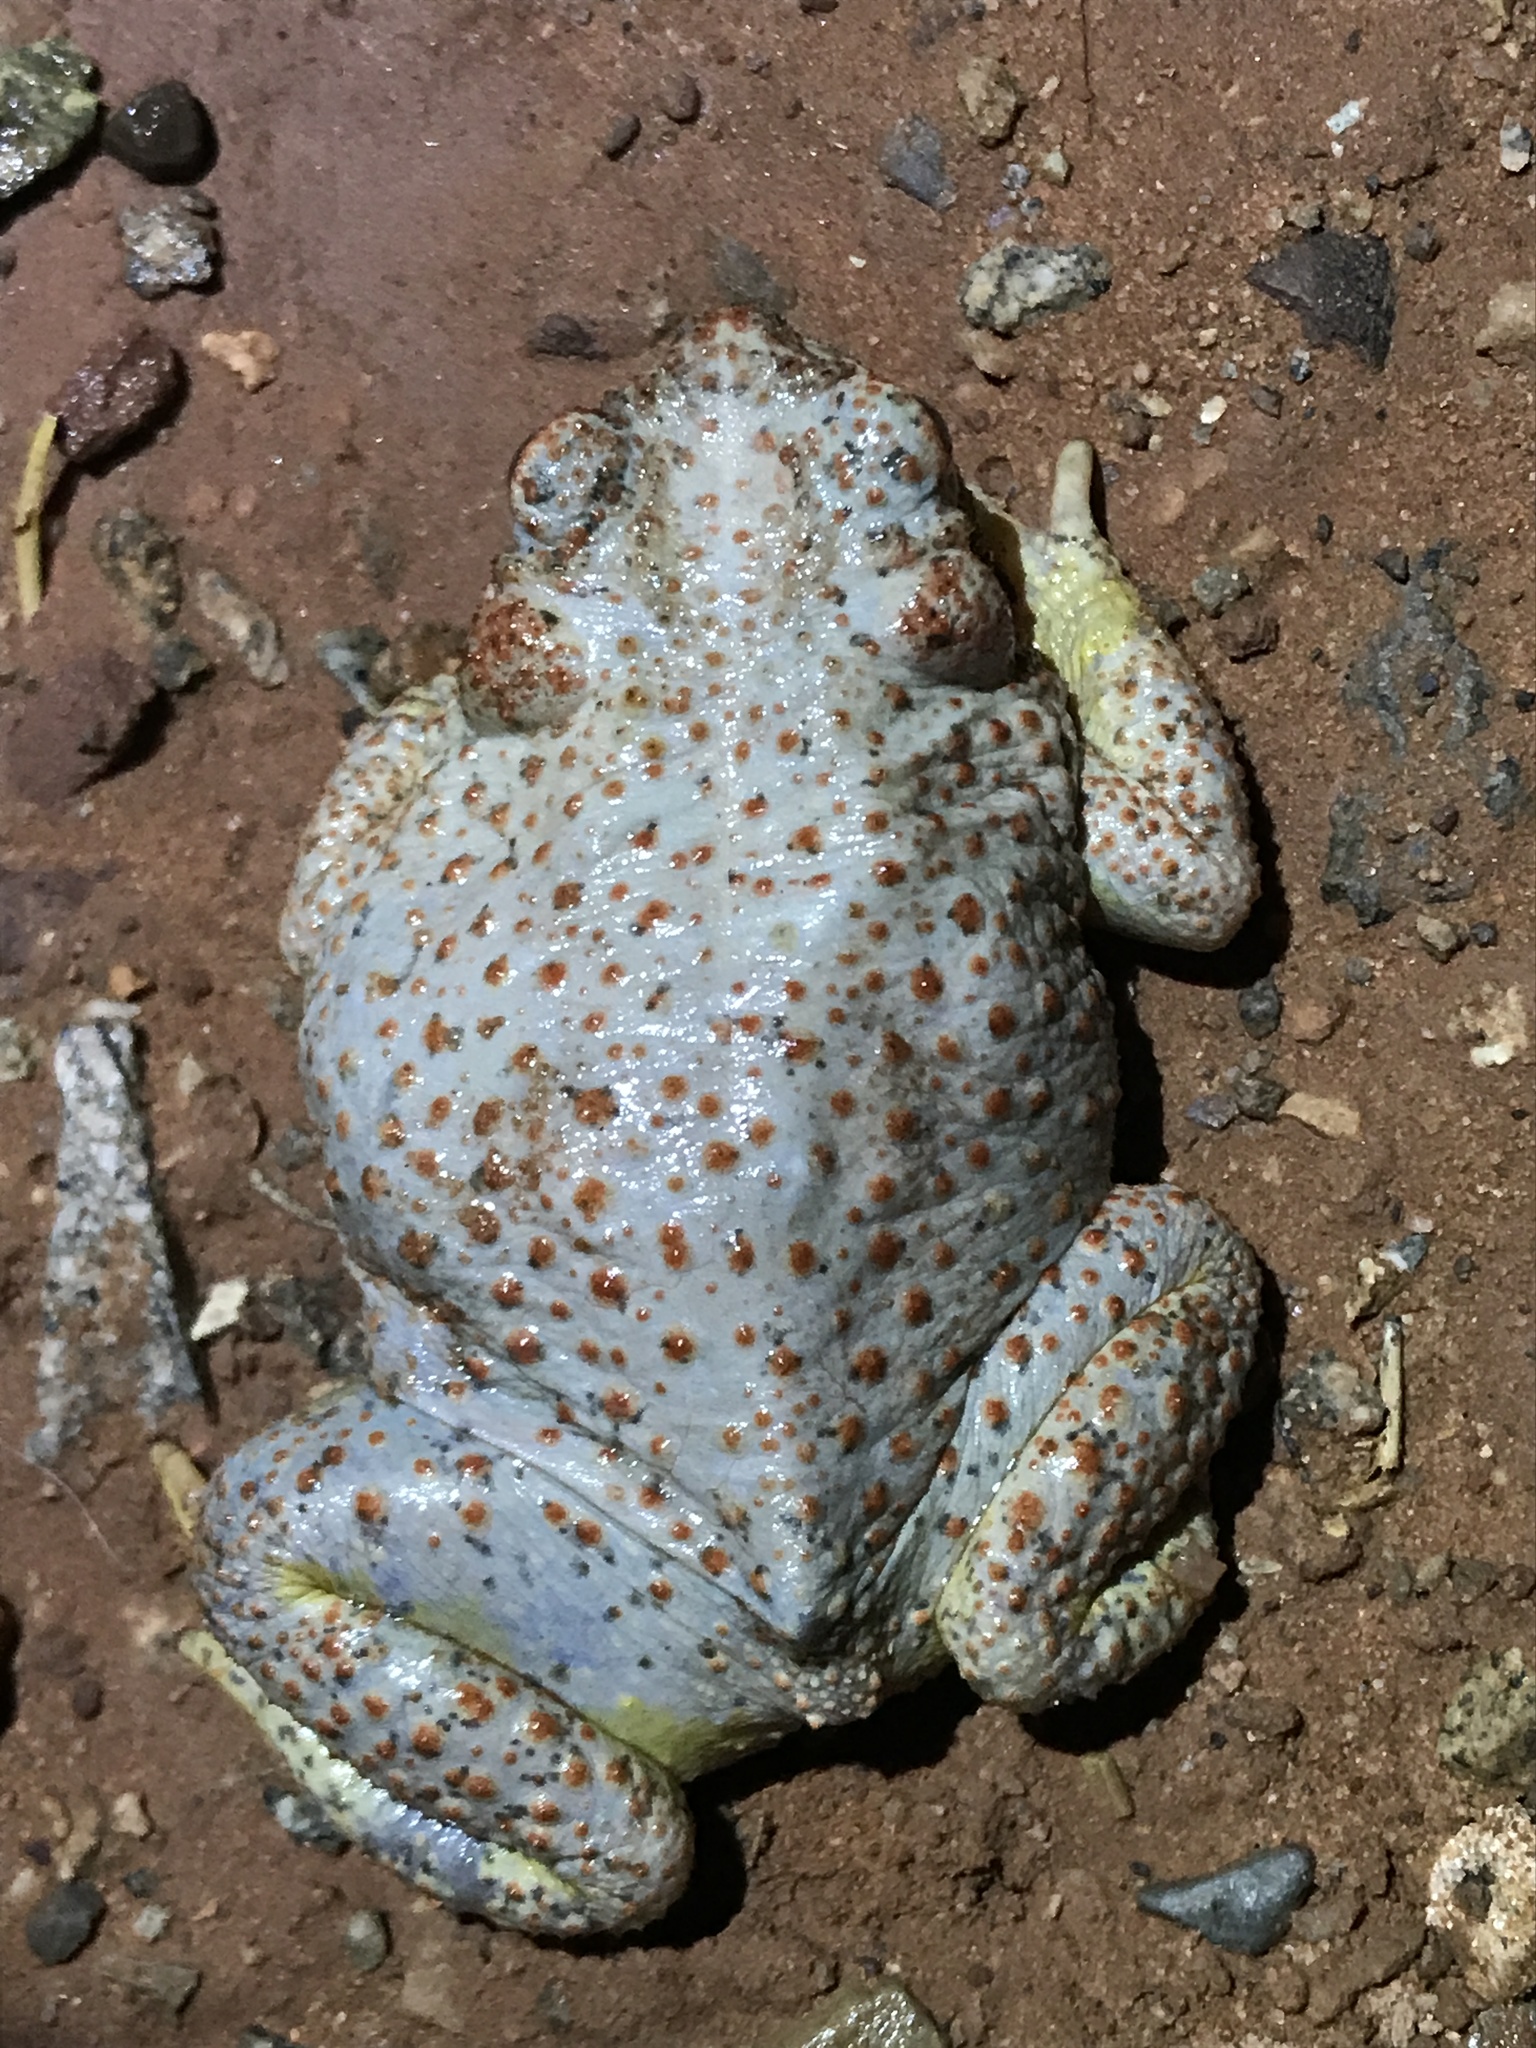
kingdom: Animalia
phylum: Chordata
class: Amphibia
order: Anura
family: Bufonidae
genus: Anaxyrus
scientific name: Anaxyrus punctatus
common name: Red-spotted toad
